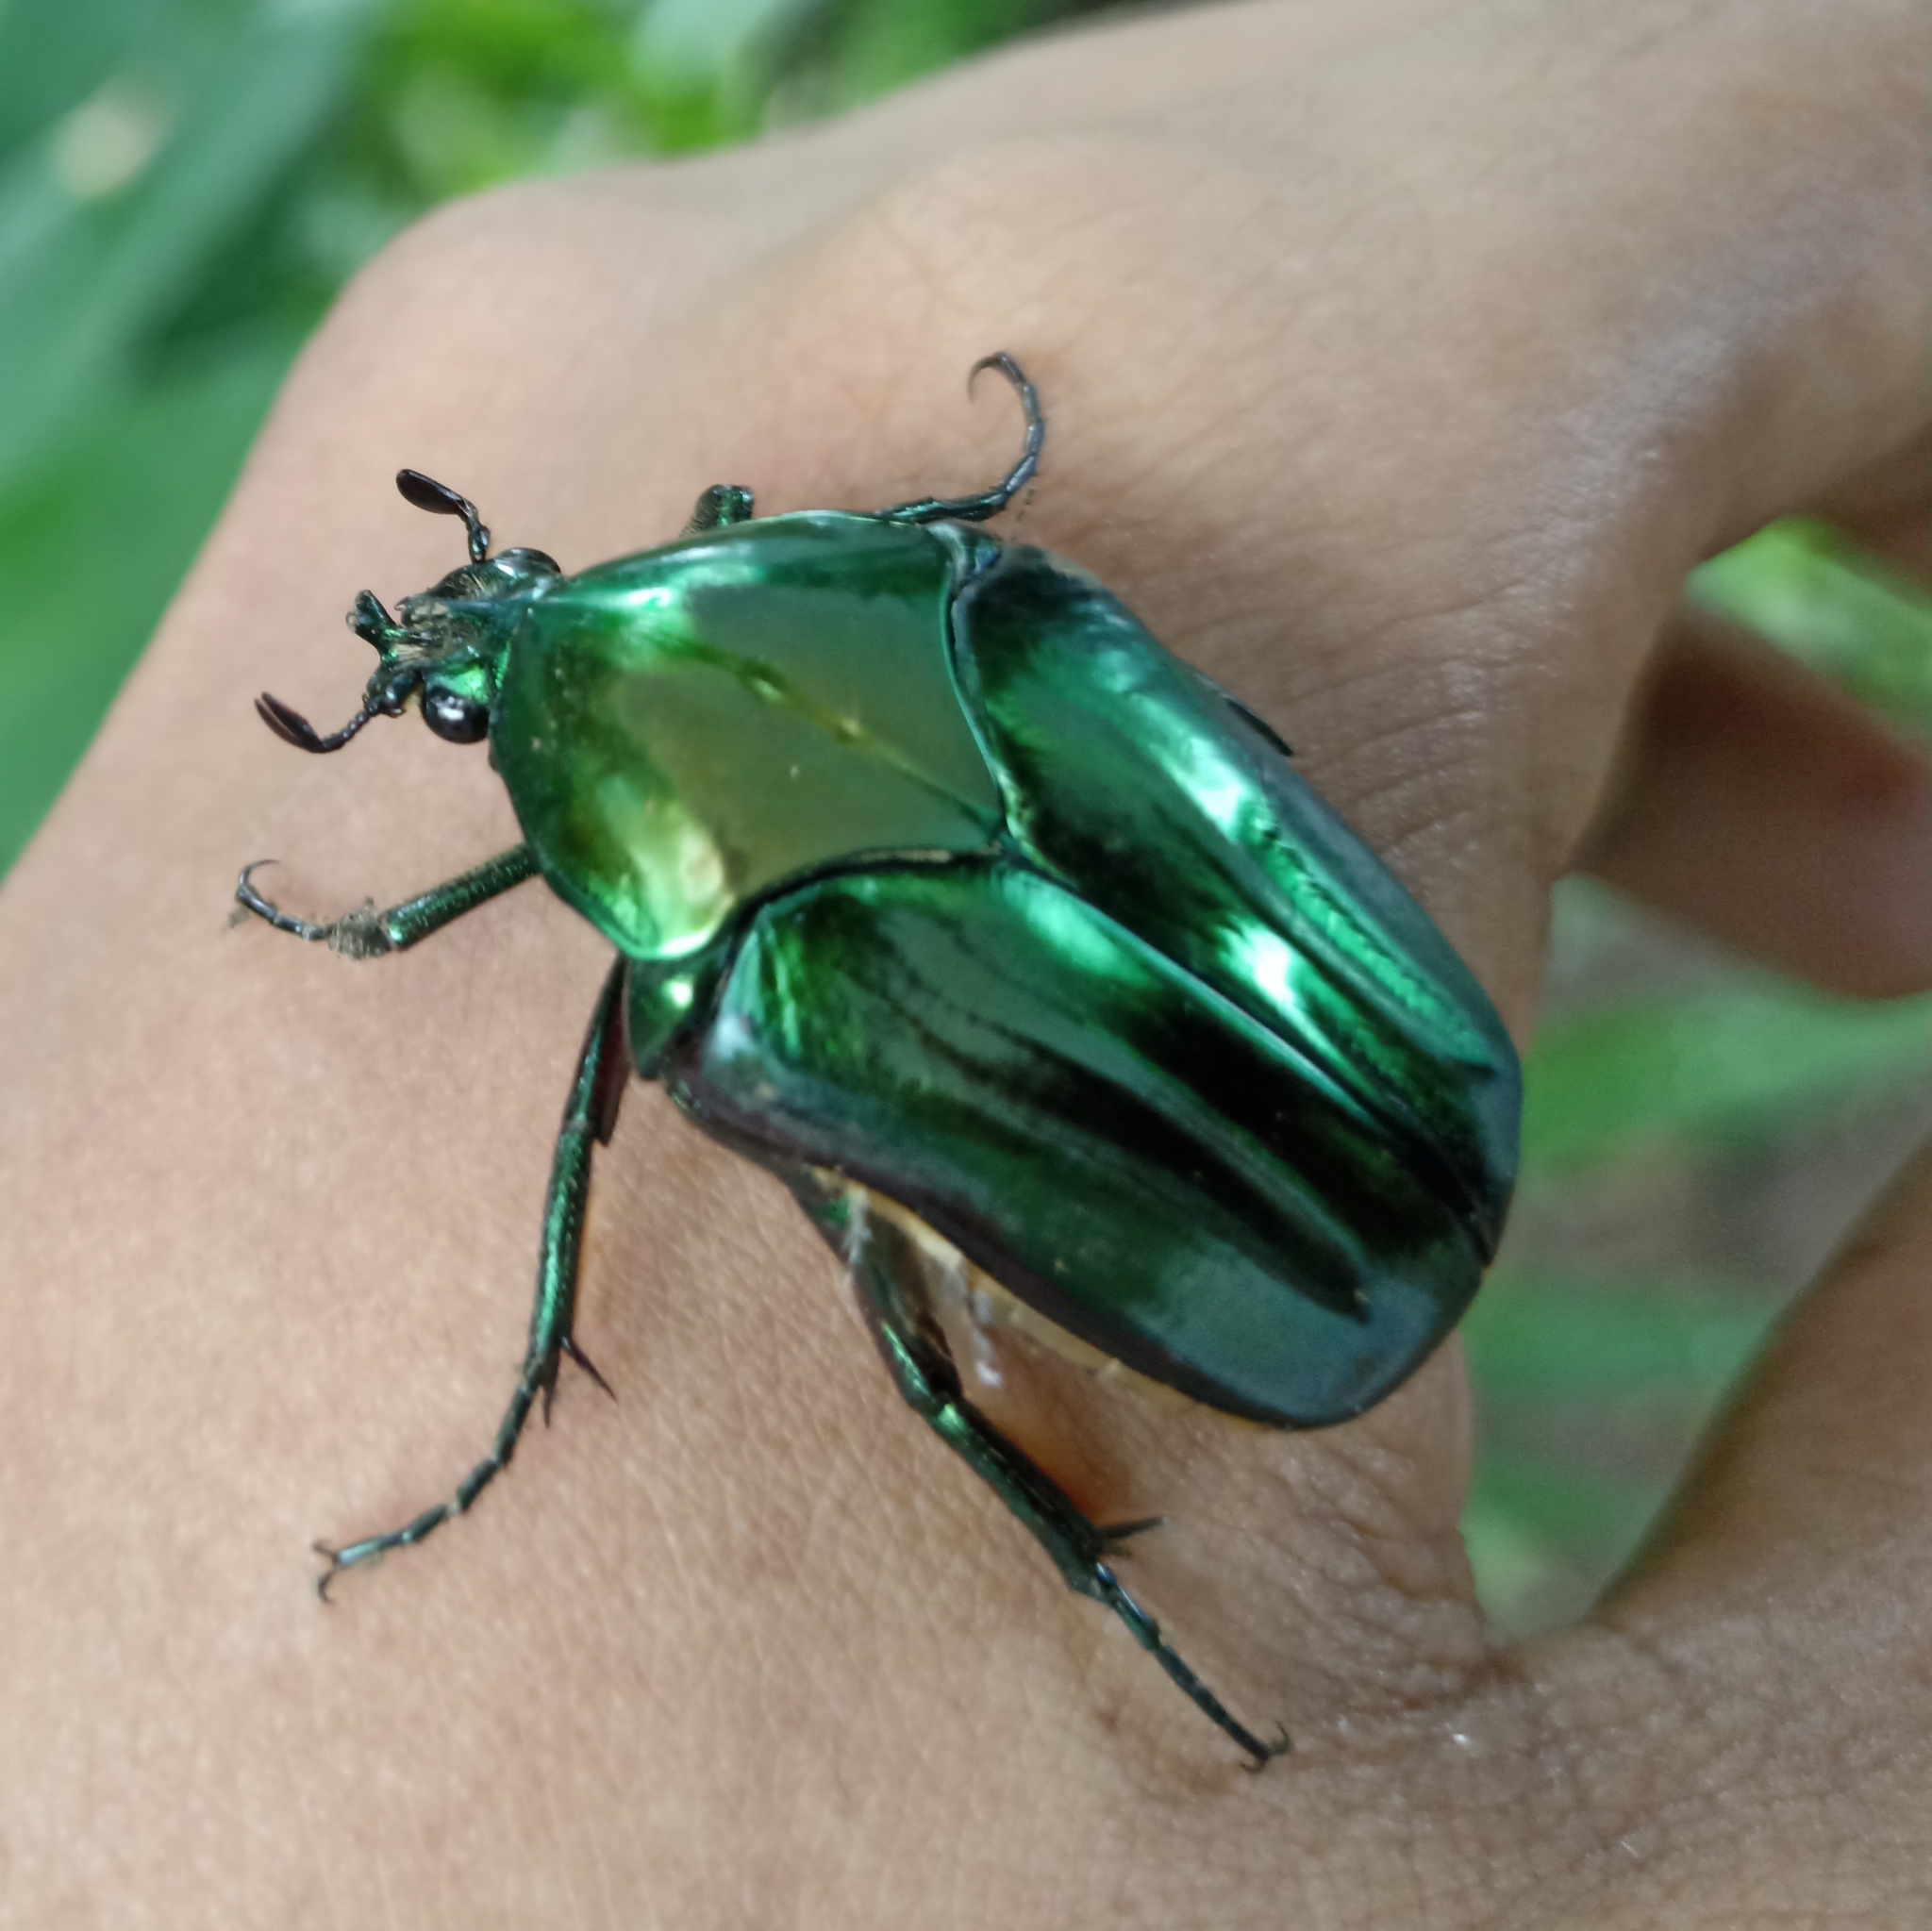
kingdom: Animalia
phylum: Arthropoda
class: Insecta
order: Coleoptera
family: Scarabaeidae
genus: Cotinis
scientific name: Cotinis mutabilis
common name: Figeater beetle
